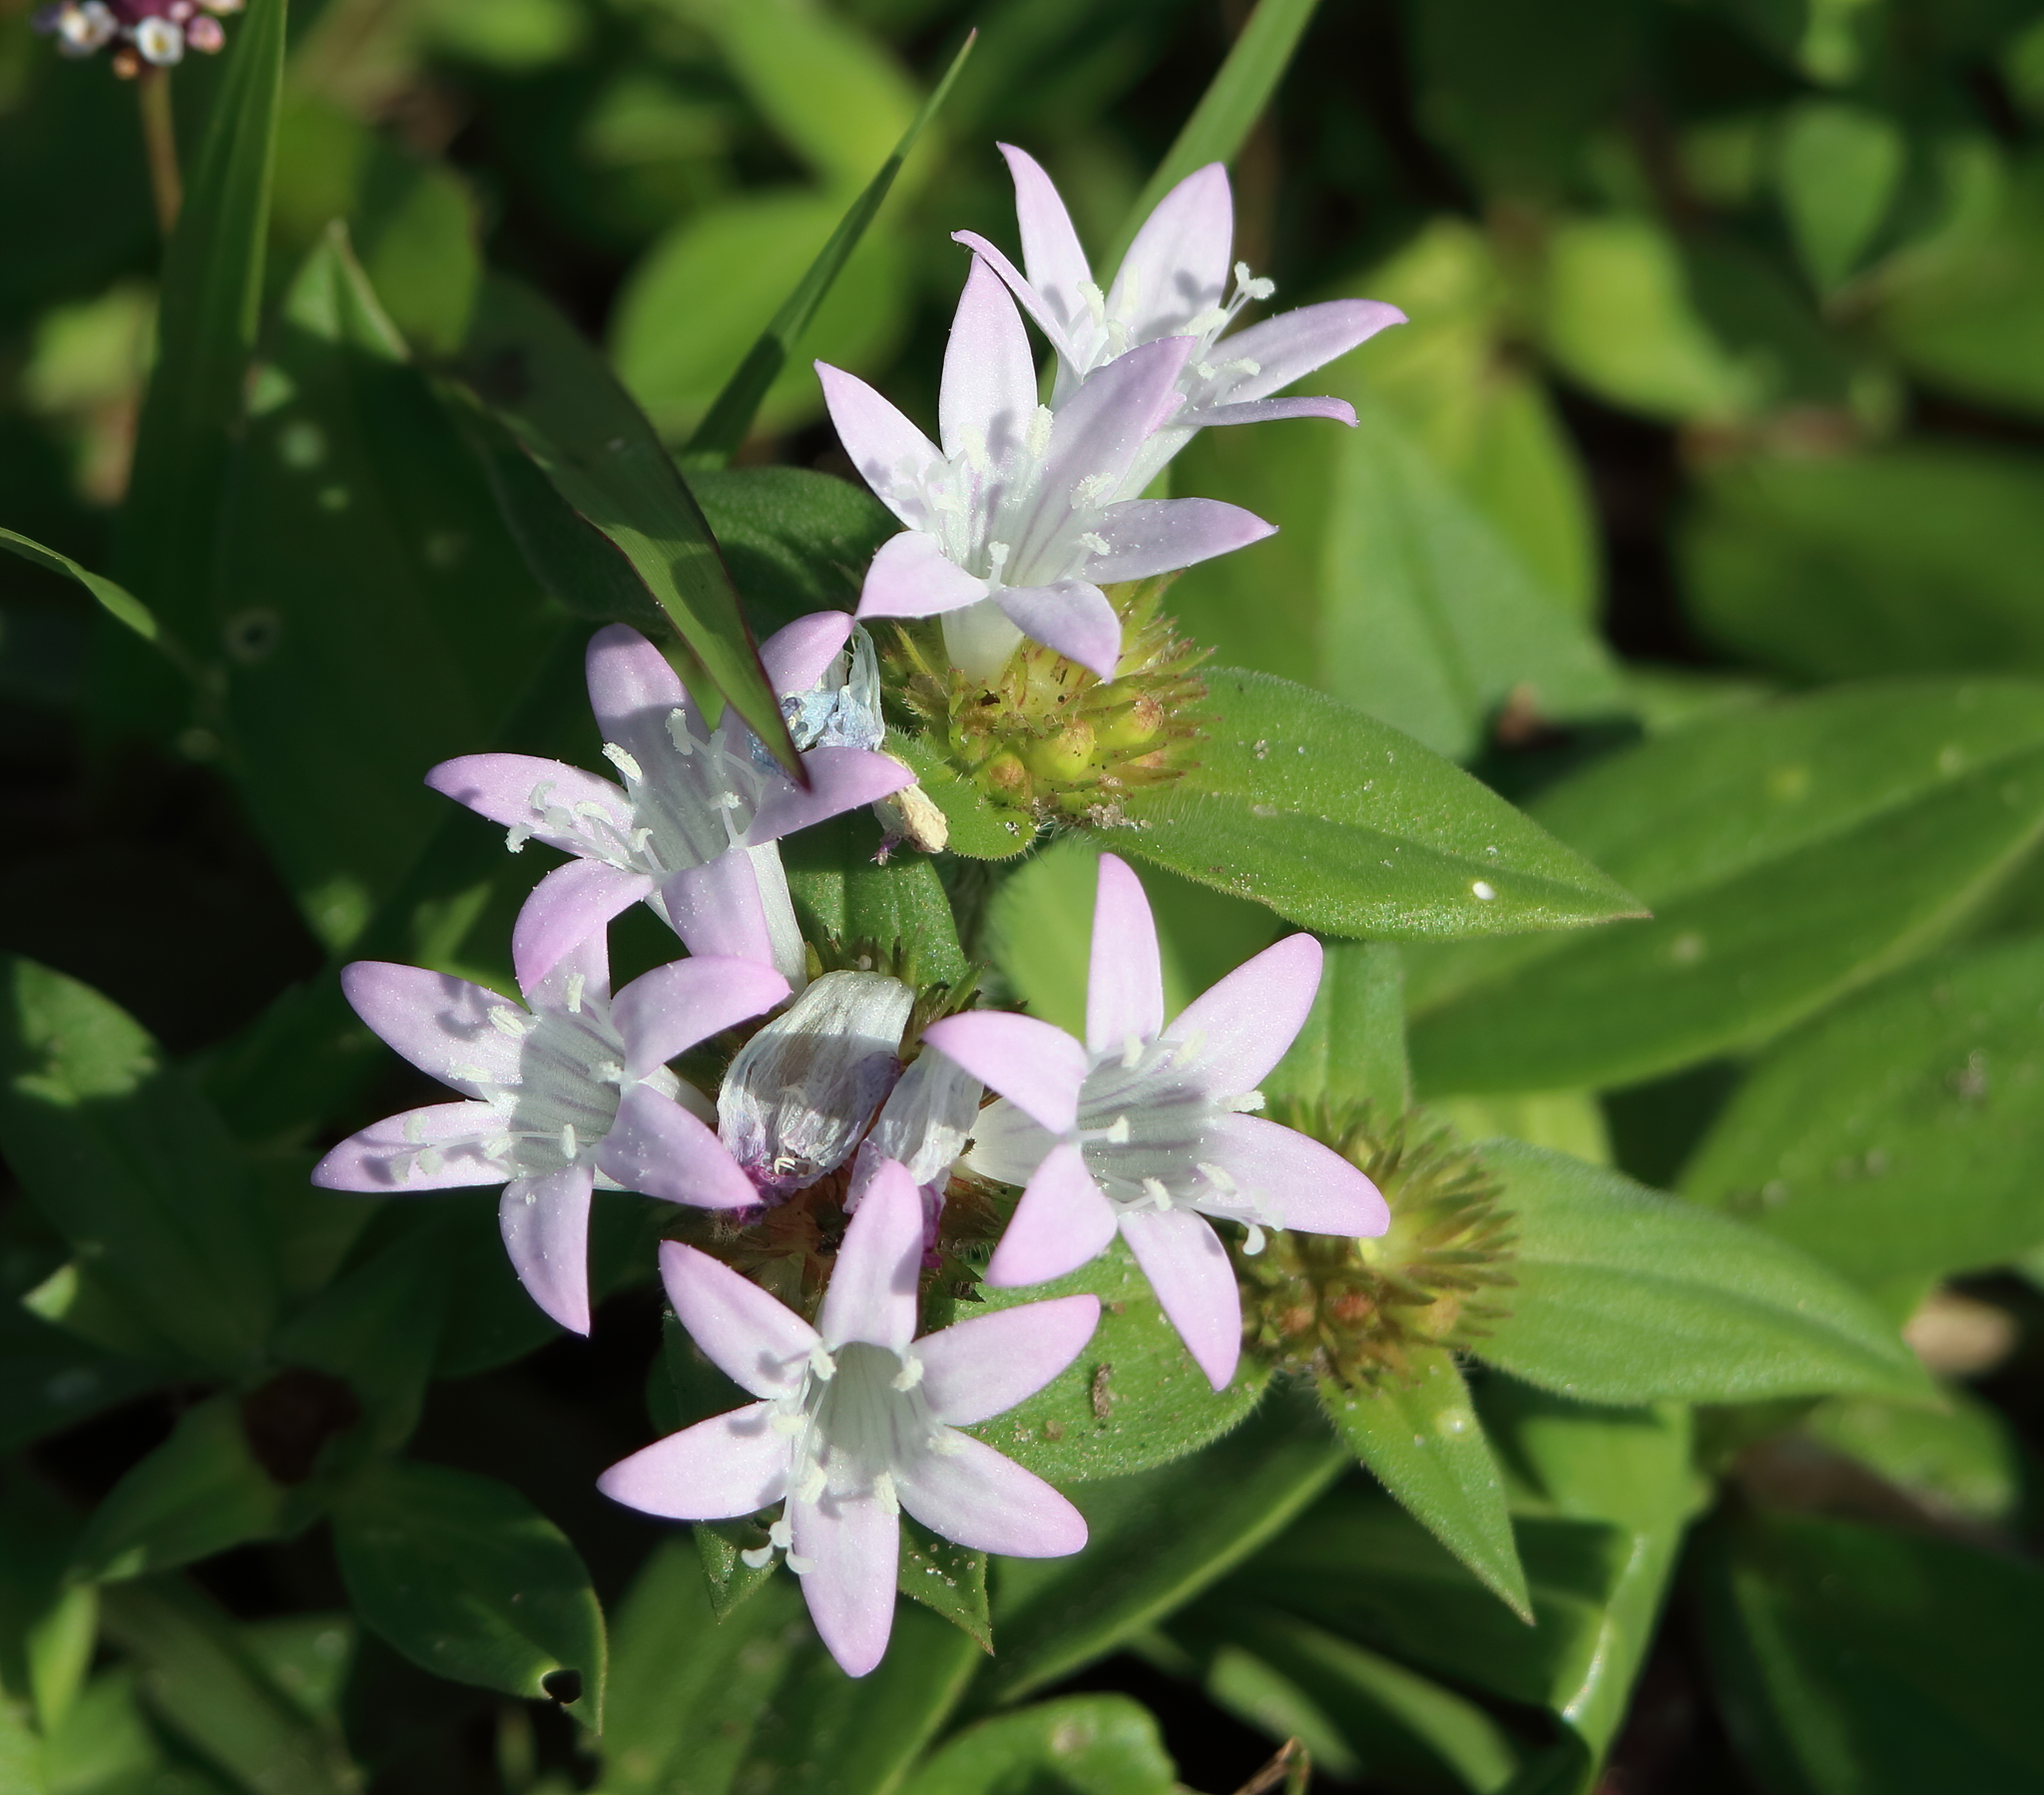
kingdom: Plantae
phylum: Tracheophyta
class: Magnoliopsida
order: Gentianales
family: Rubiaceae
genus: Richardia
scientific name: Richardia grandiflora
